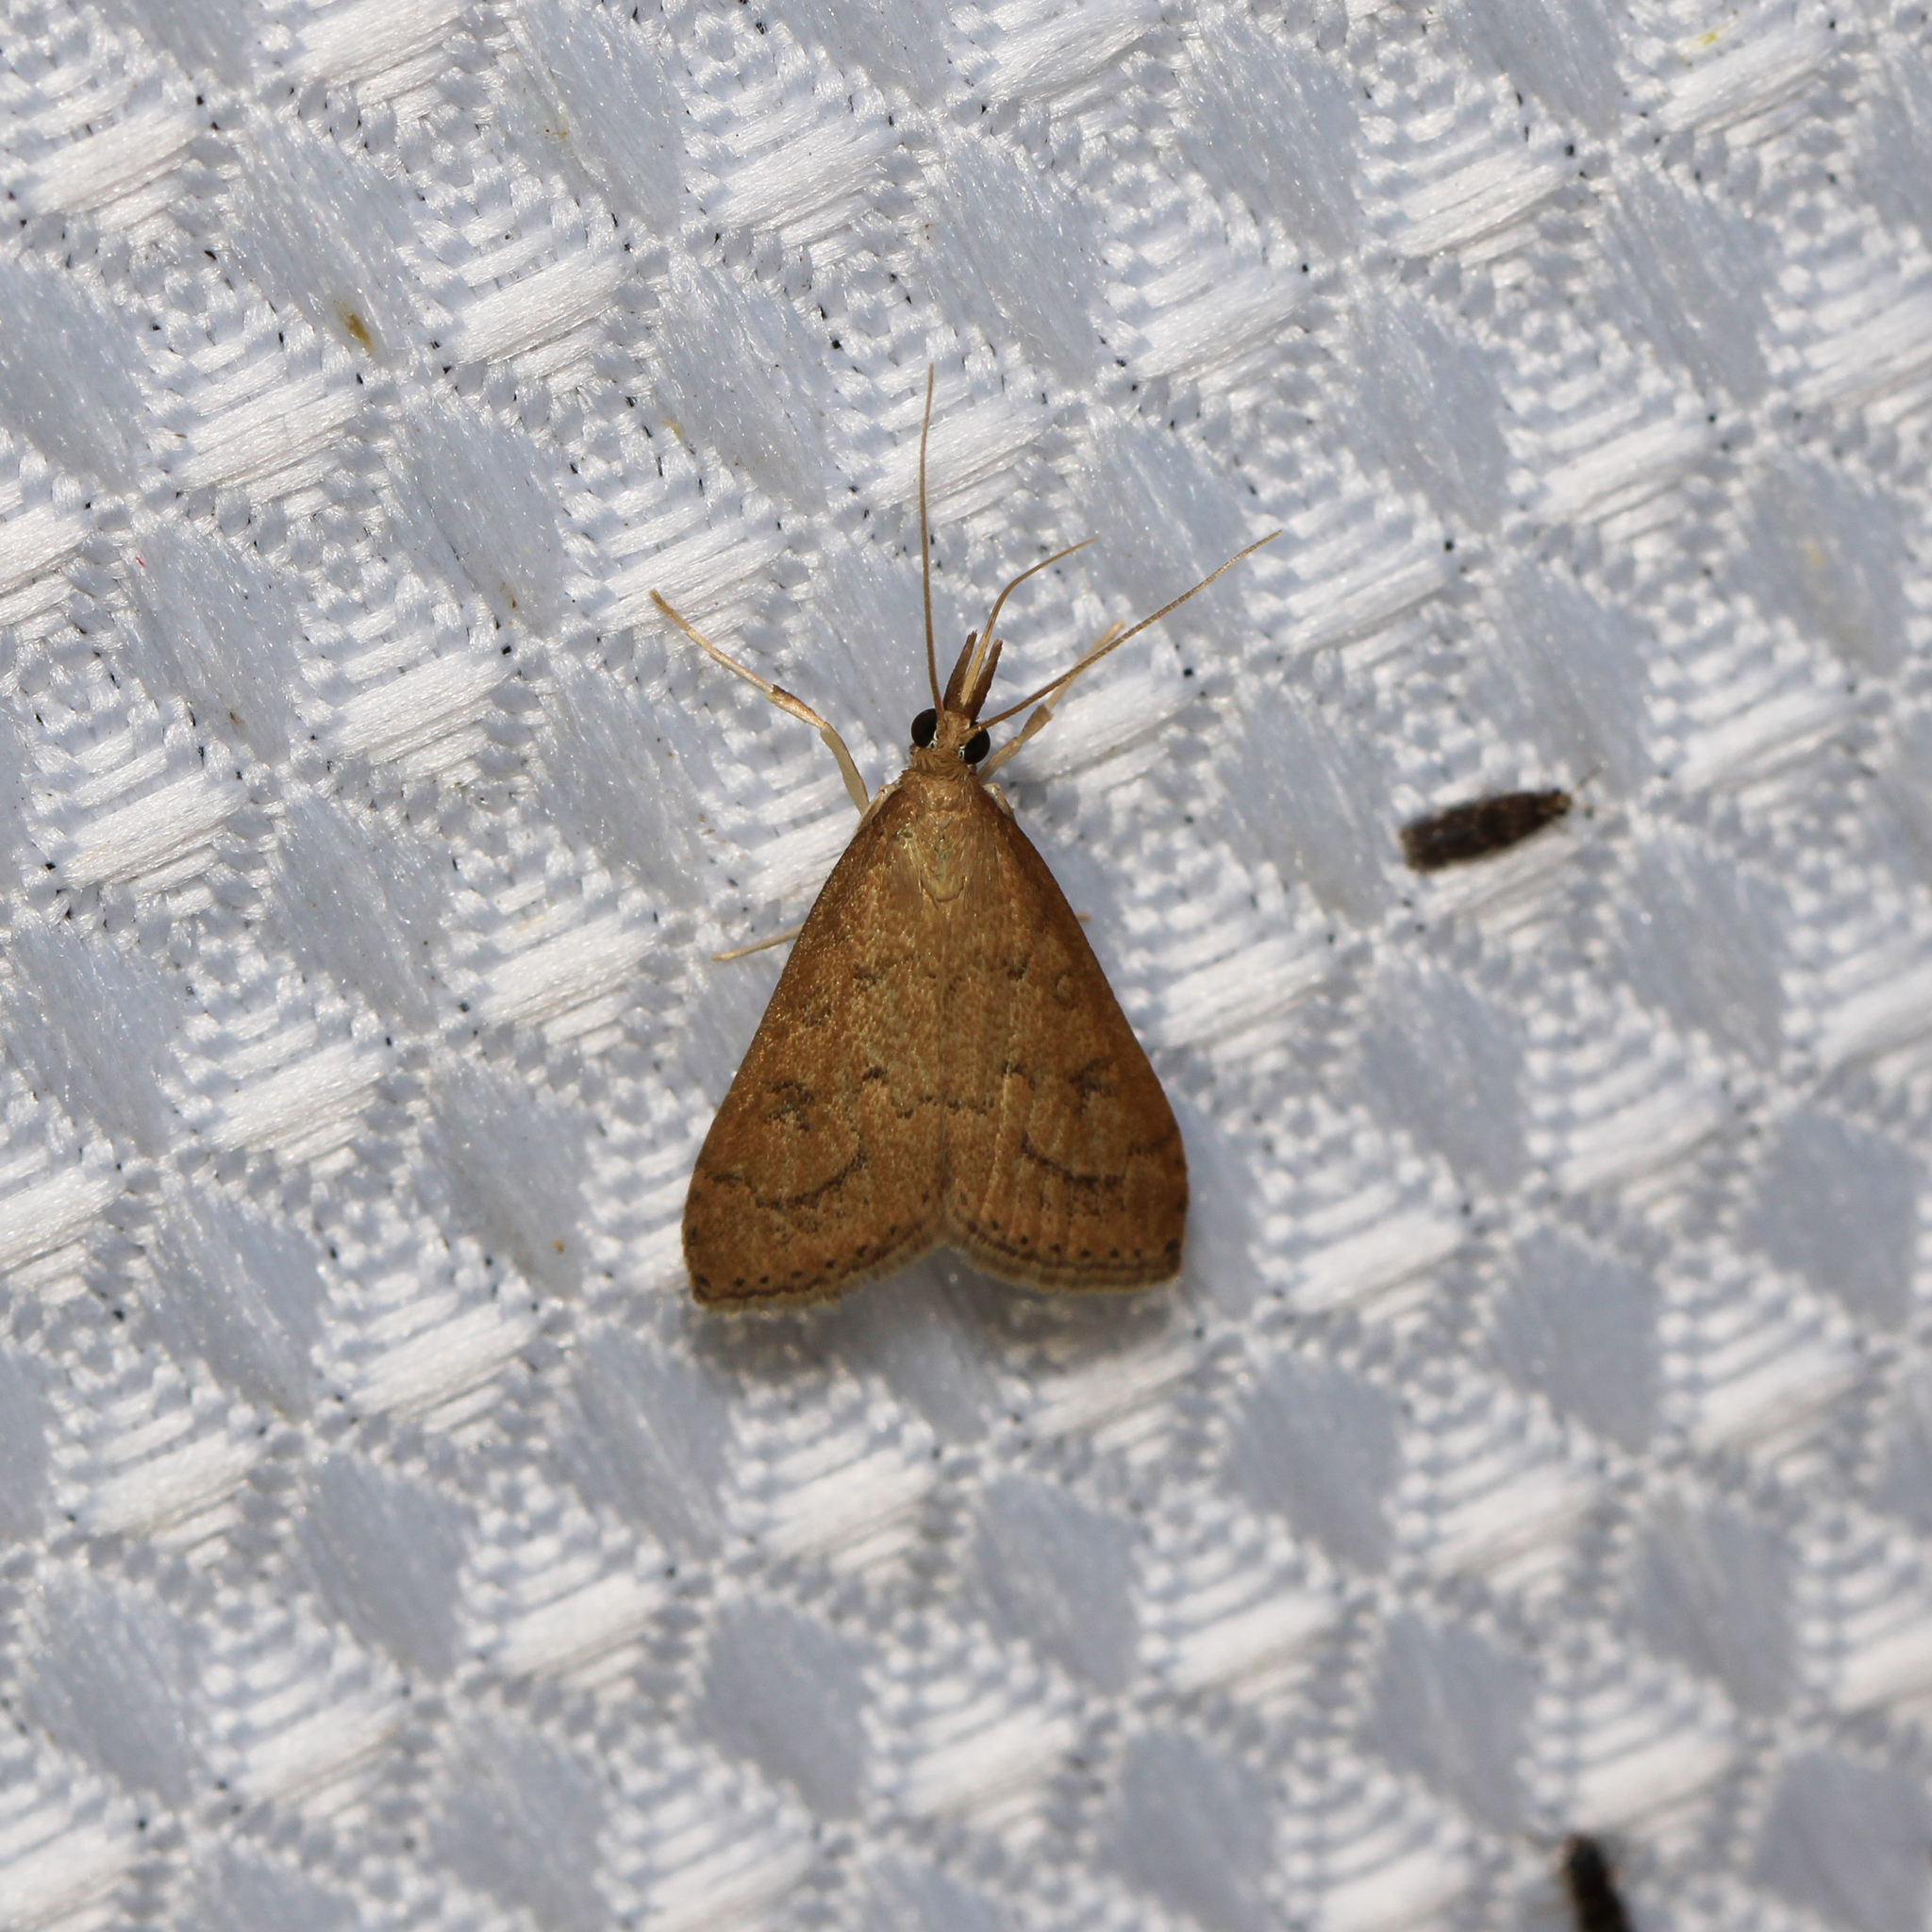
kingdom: Animalia
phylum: Arthropoda
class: Insecta
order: Lepidoptera
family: Crambidae
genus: Udea
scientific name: Udea rubigalis
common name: Celery leaftier moth
